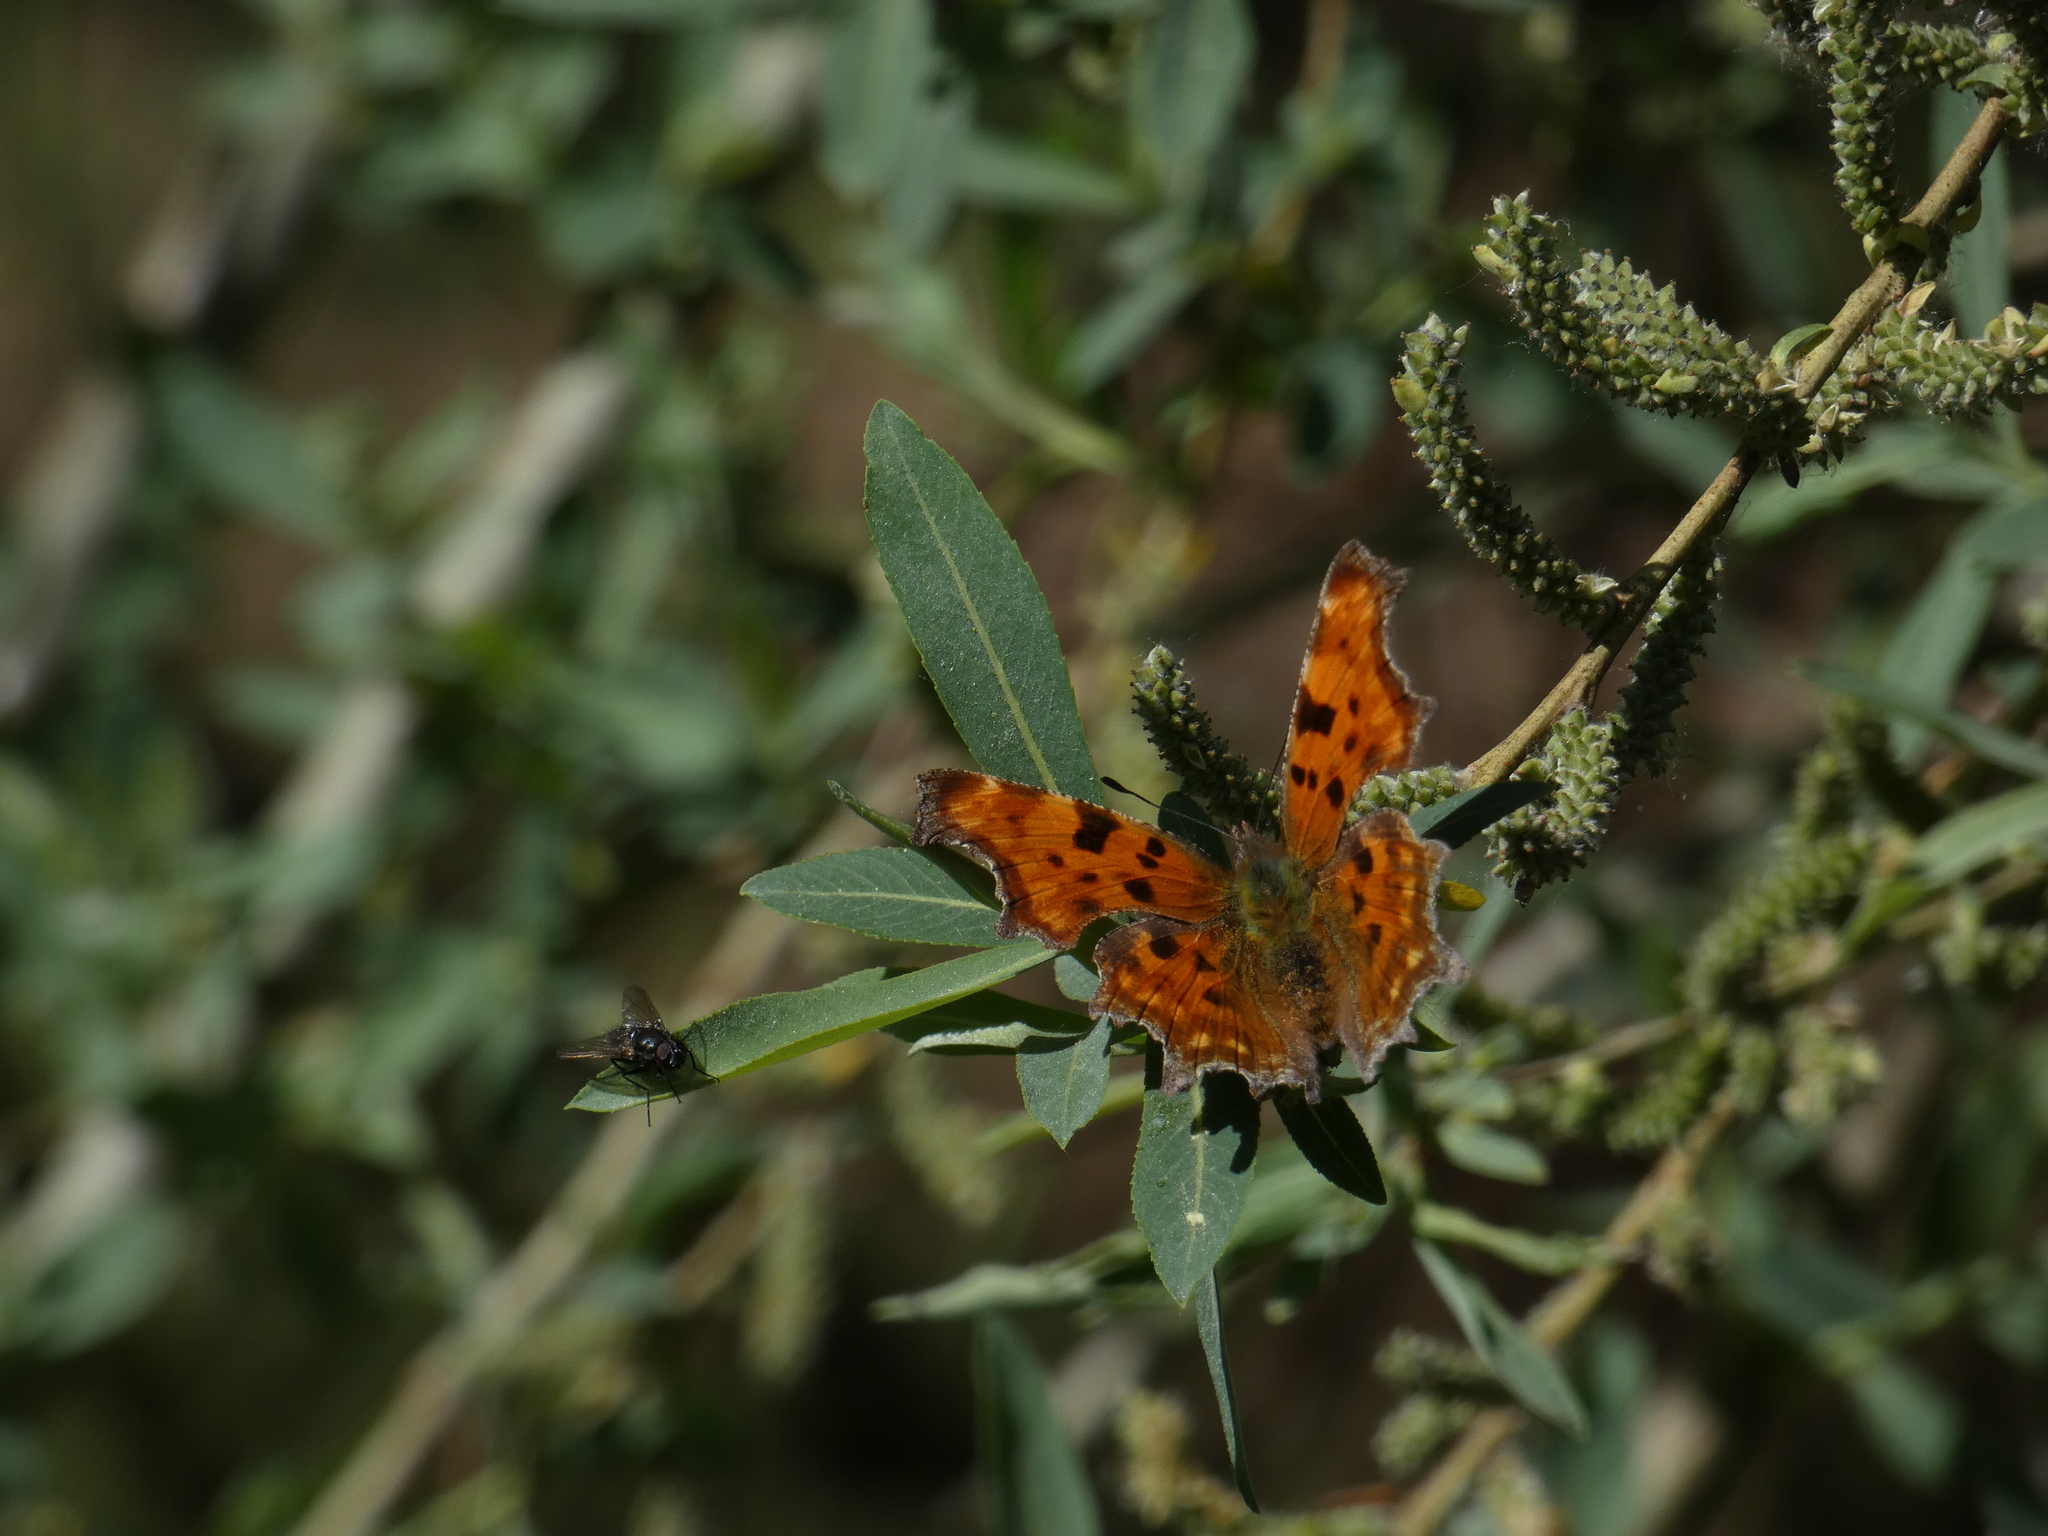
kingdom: Animalia
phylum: Arthropoda
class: Insecta
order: Lepidoptera
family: Nymphalidae
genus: Polygonia
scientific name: Polygonia c-album
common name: Comma
